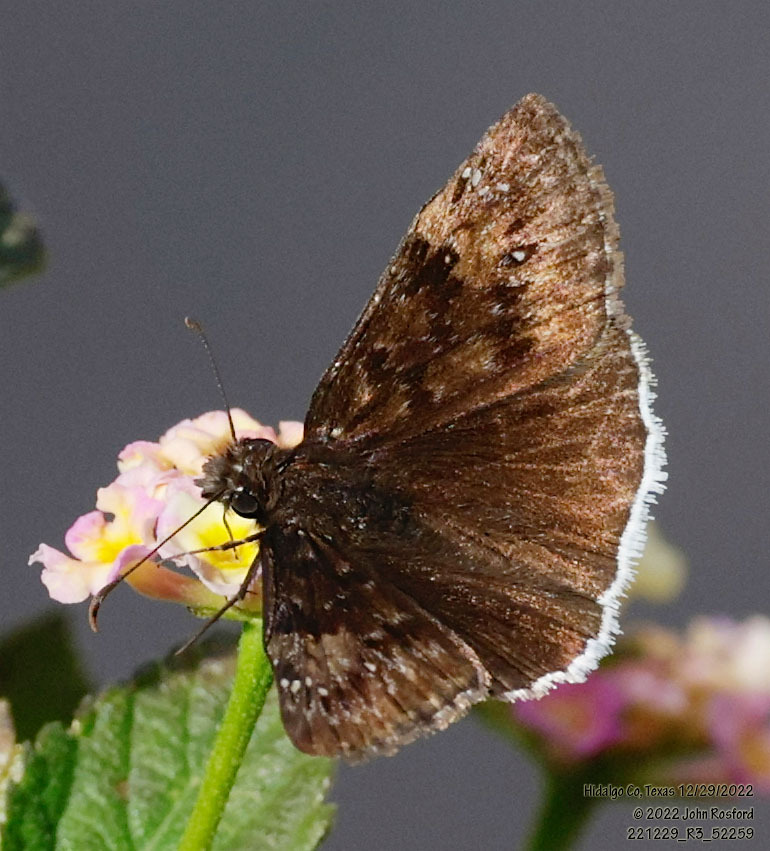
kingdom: Animalia
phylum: Arthropoda
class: Insecta
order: Lepidoptera
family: Hesperiidae
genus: Erynnis
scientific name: Erynnis tristis
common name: Mournful duskywing
